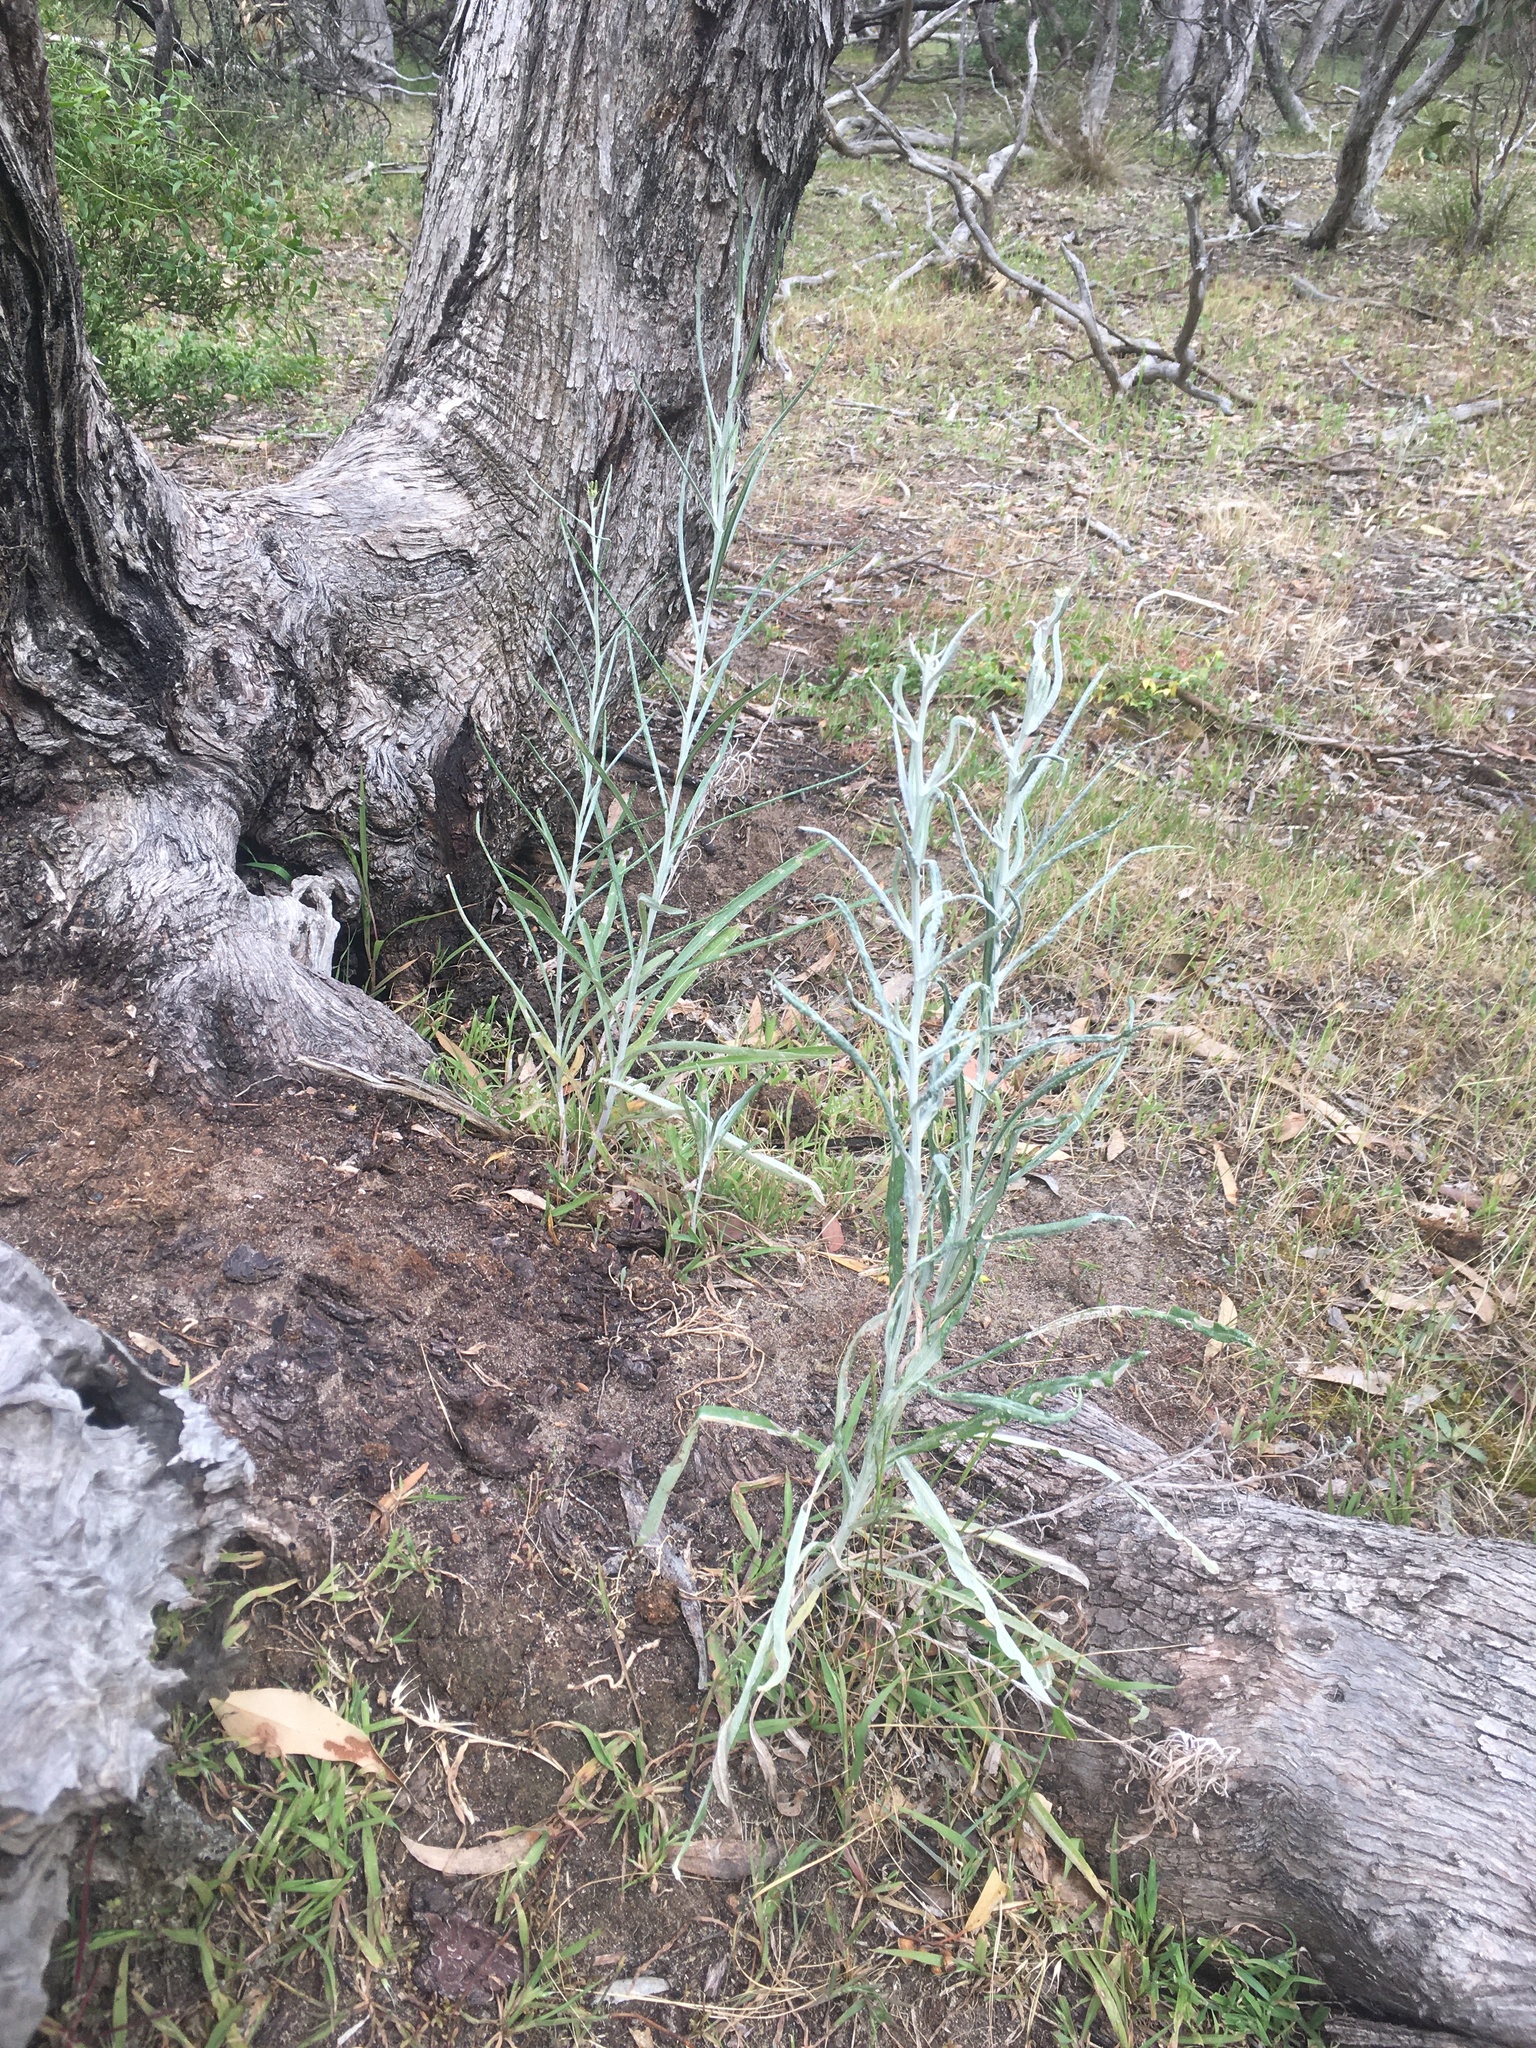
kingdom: Plantae
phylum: Tracheophyta
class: Magnoliopsida
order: Asterales
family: Asteraceae
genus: Senecio
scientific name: Senecio quadridentatus
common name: Cotton fireweed
